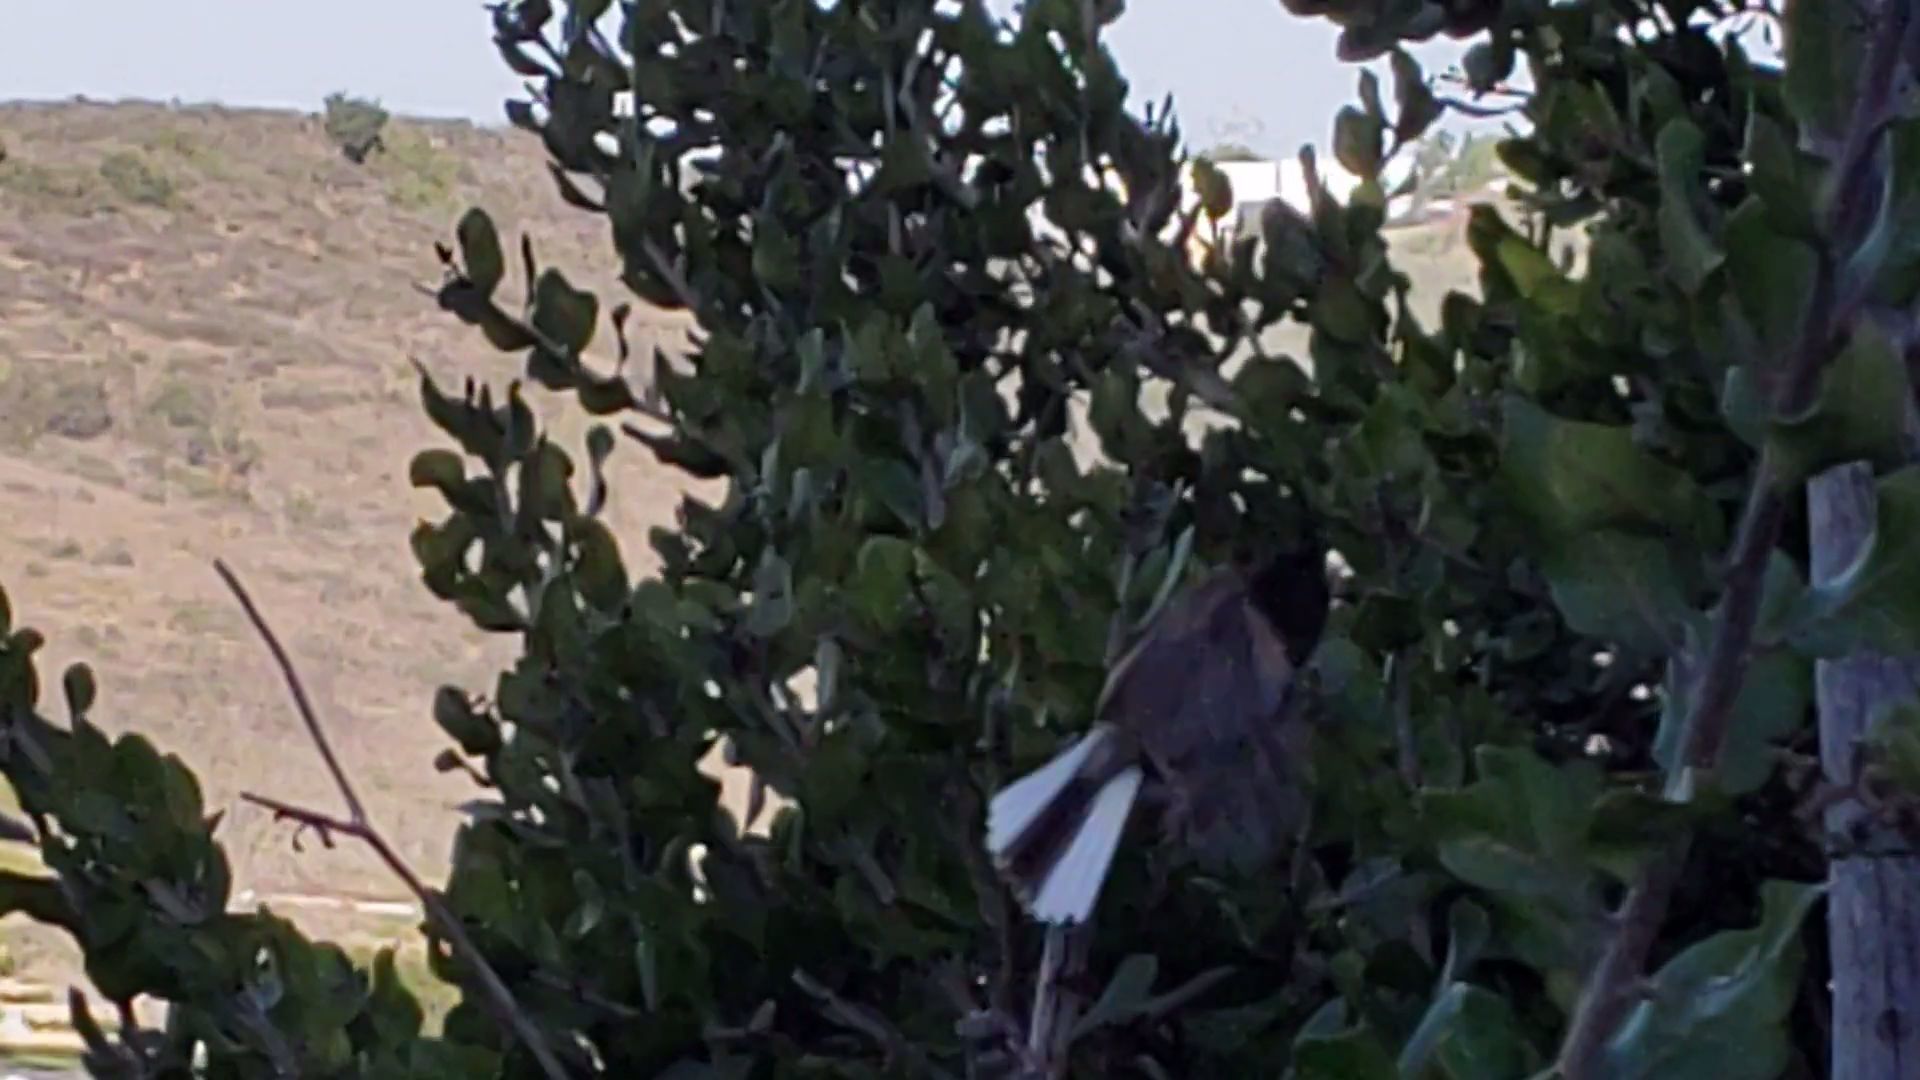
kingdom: Animalia
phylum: Chordata
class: Aves
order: Passeriformes
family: Passerellidae
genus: Junco
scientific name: Junco hyemalis
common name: Dark-eyed junco
